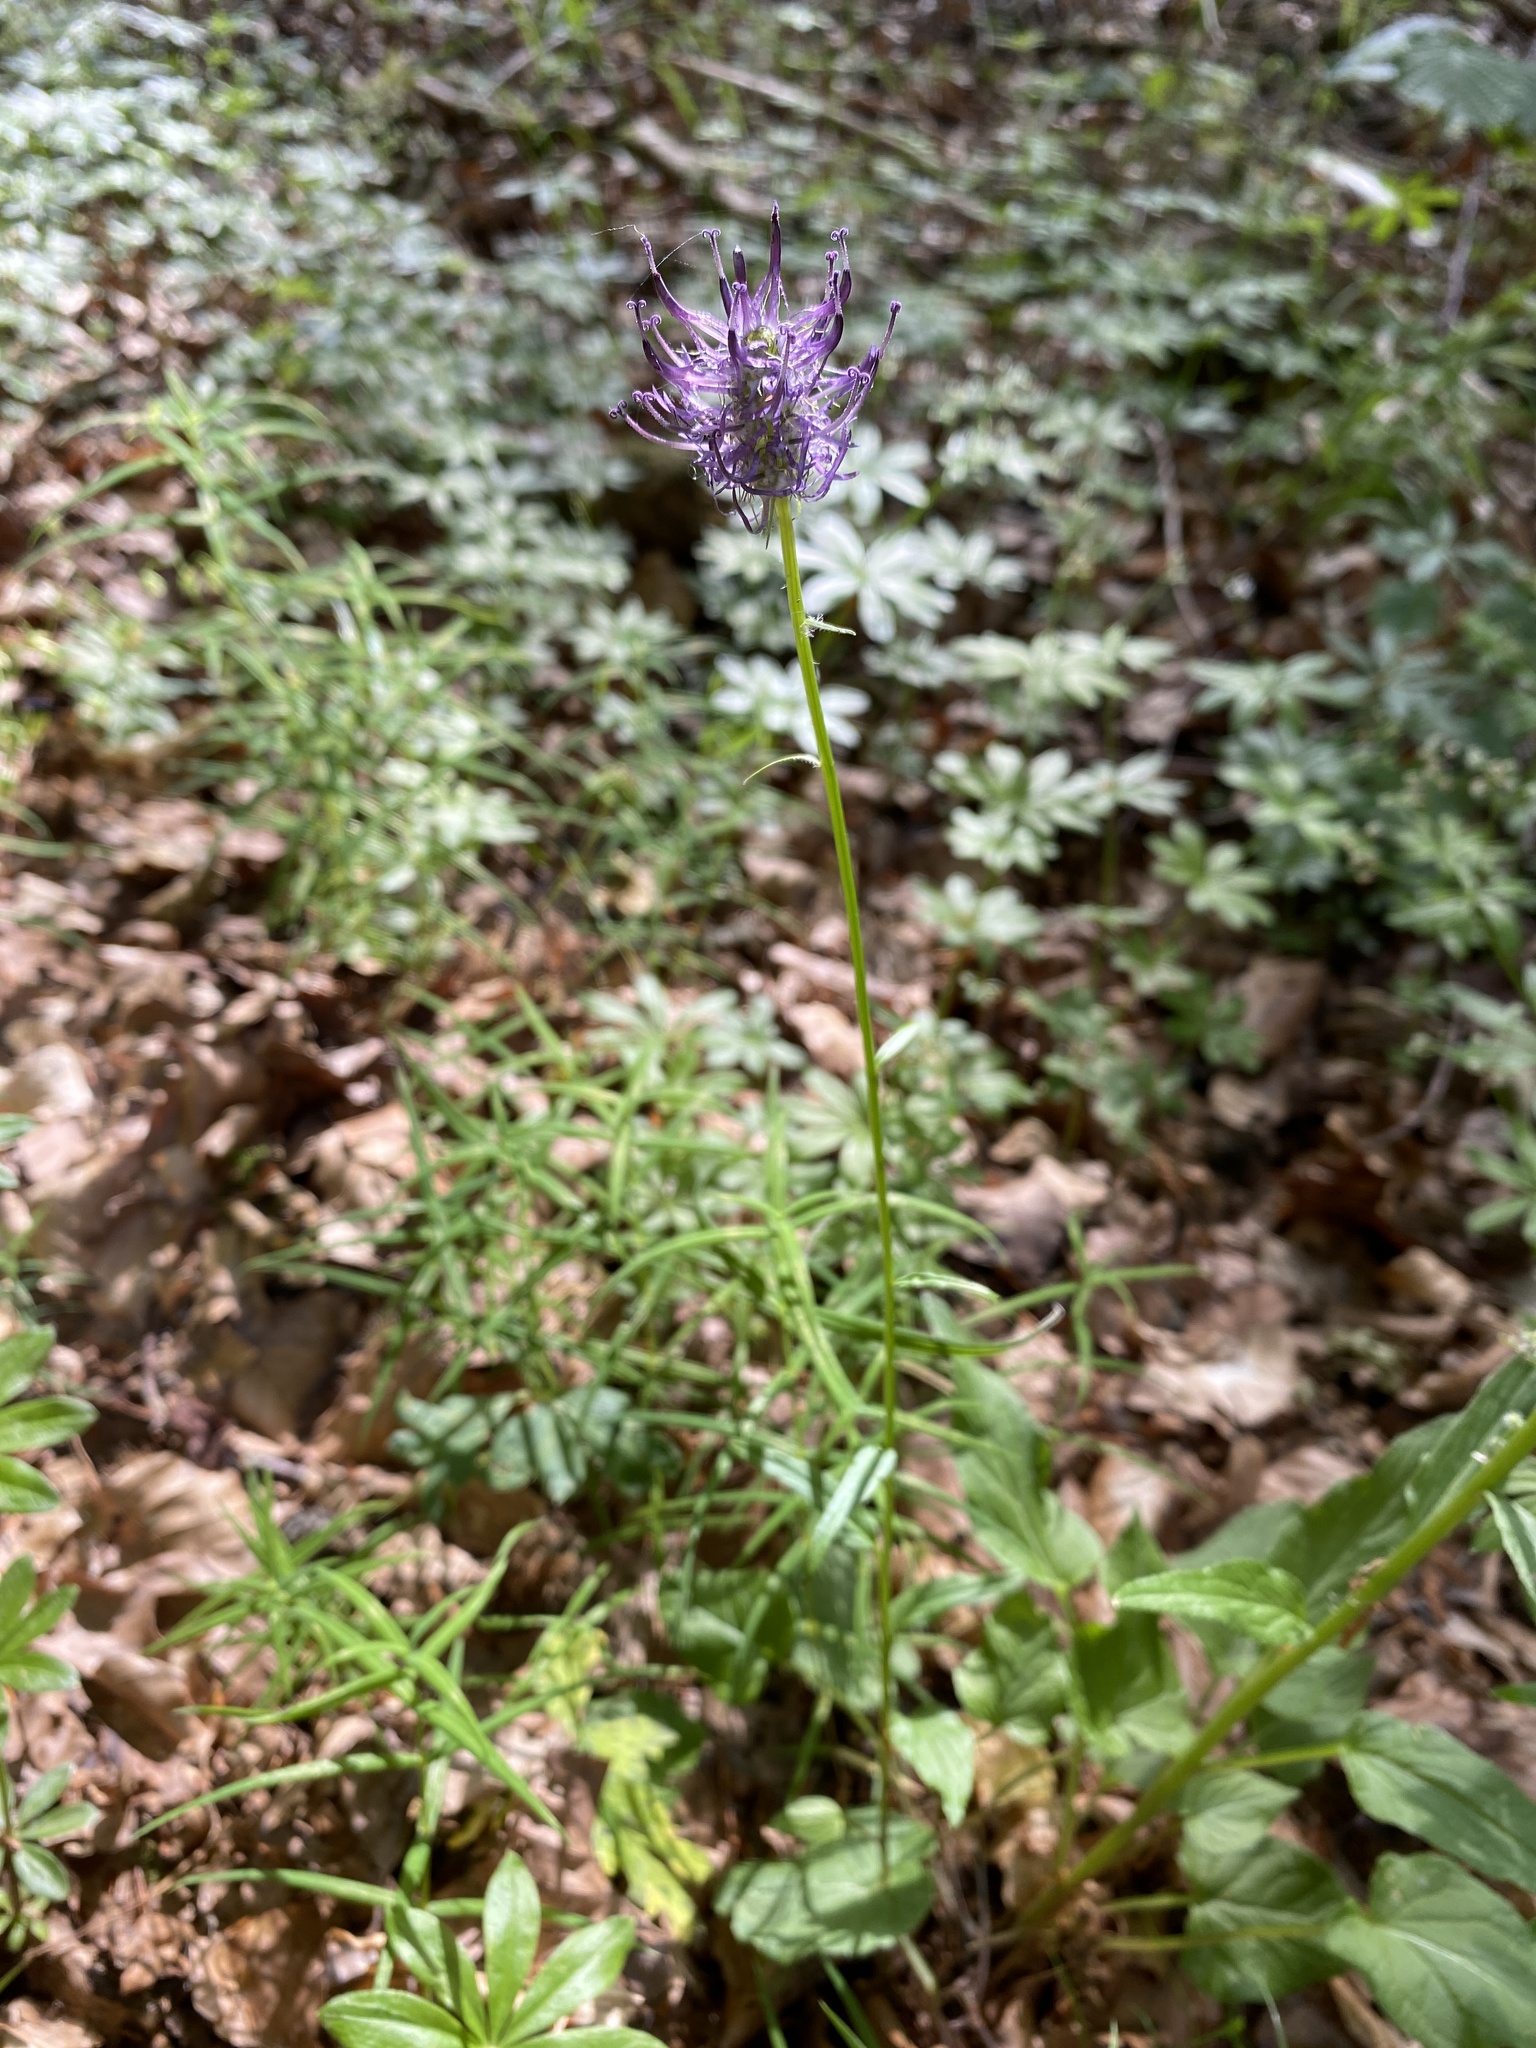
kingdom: Plantae
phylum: Tracheophyta
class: Magnoliopsida
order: Asterales
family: Campanulaceae
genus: Phyteuma
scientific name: Phyteuma nigrum
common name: Black rampion
